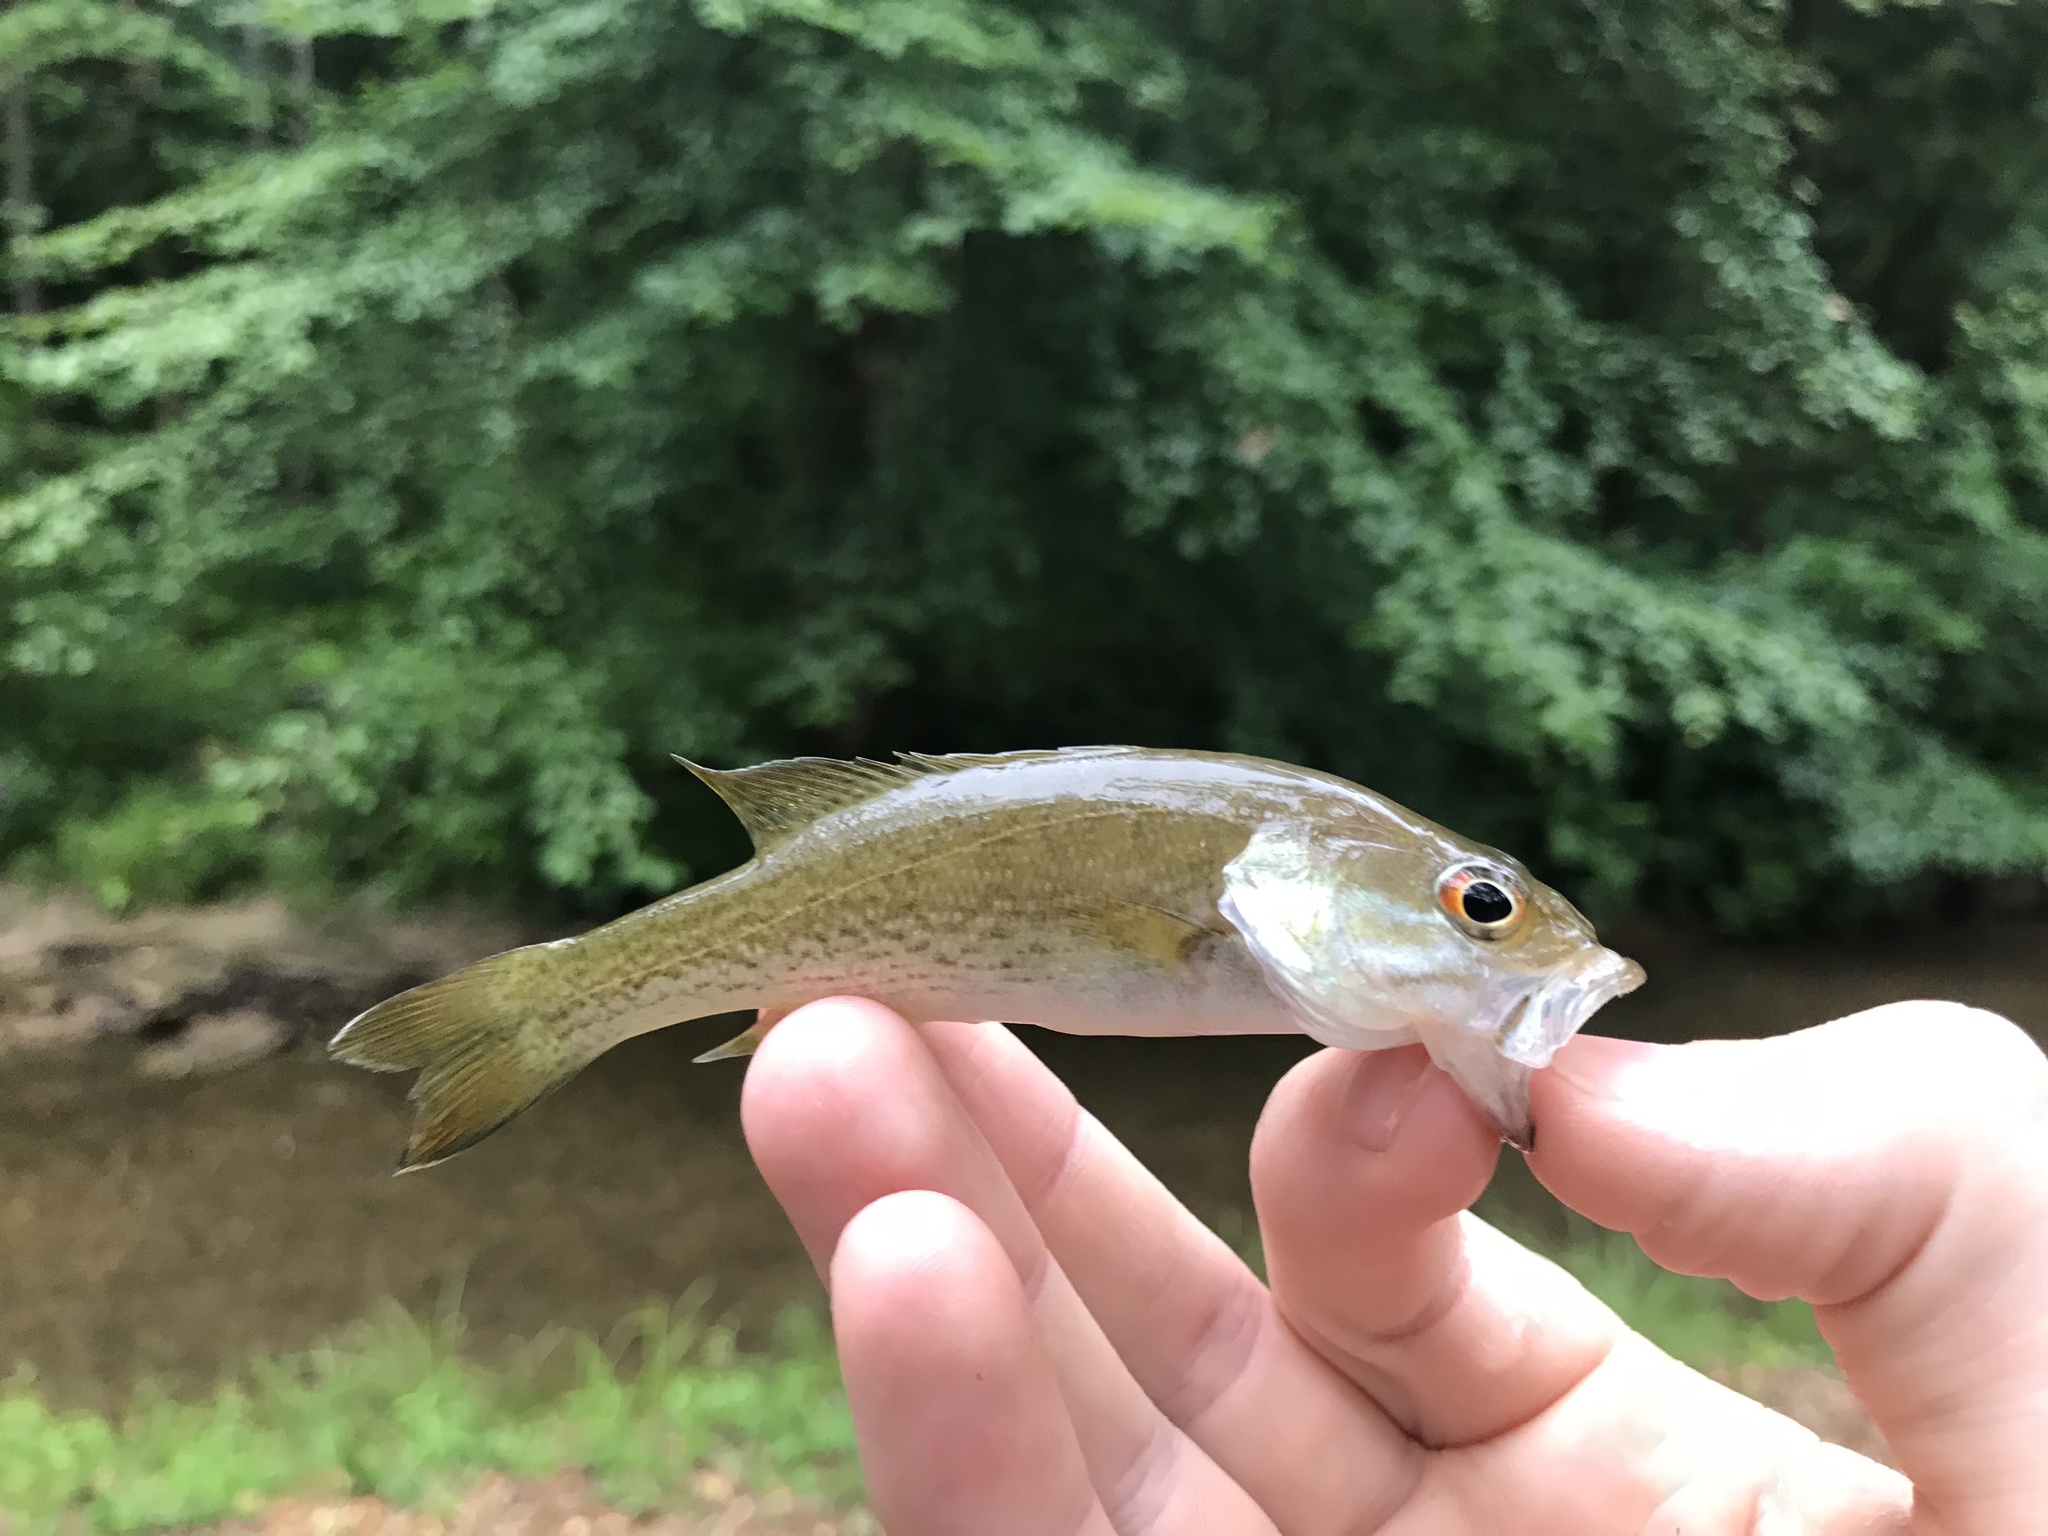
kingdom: Animalia
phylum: Chordata
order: Perciformes
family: Centrarchidae
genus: Micropterus
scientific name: Micropterus cahabae
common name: Cahaba bass
